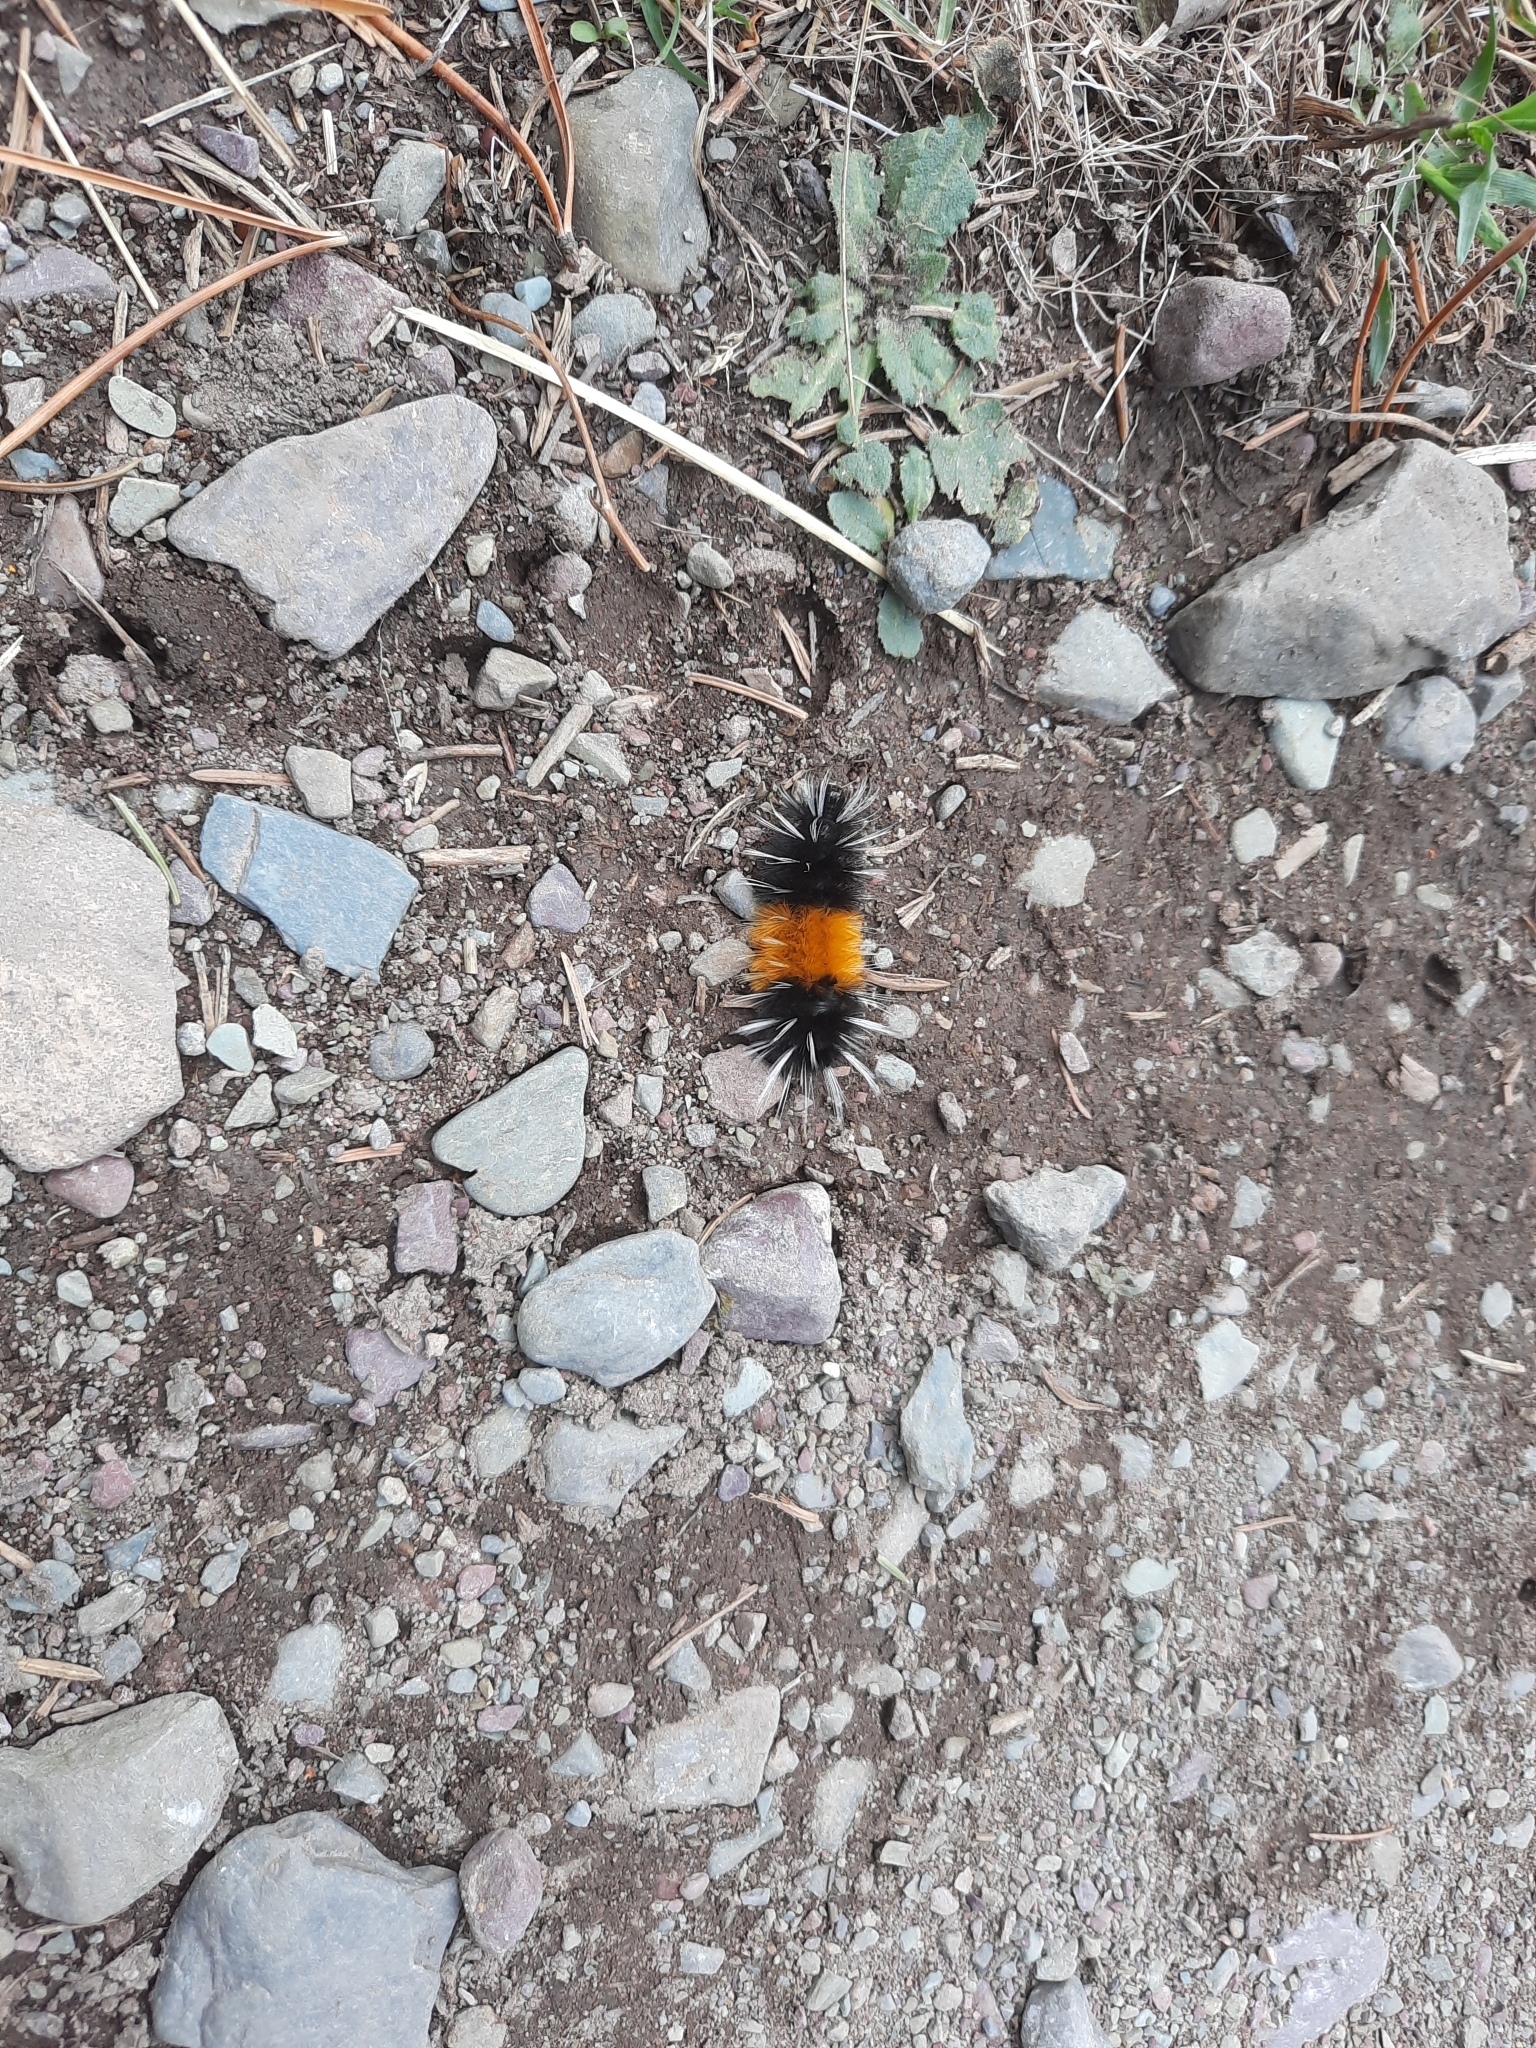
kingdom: Animalia
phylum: Arthropoda
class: Insecta
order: Lepidoptera
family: Erebidae
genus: Lophocampa
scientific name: Lophocampa maculata
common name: Spotted tussock moth
